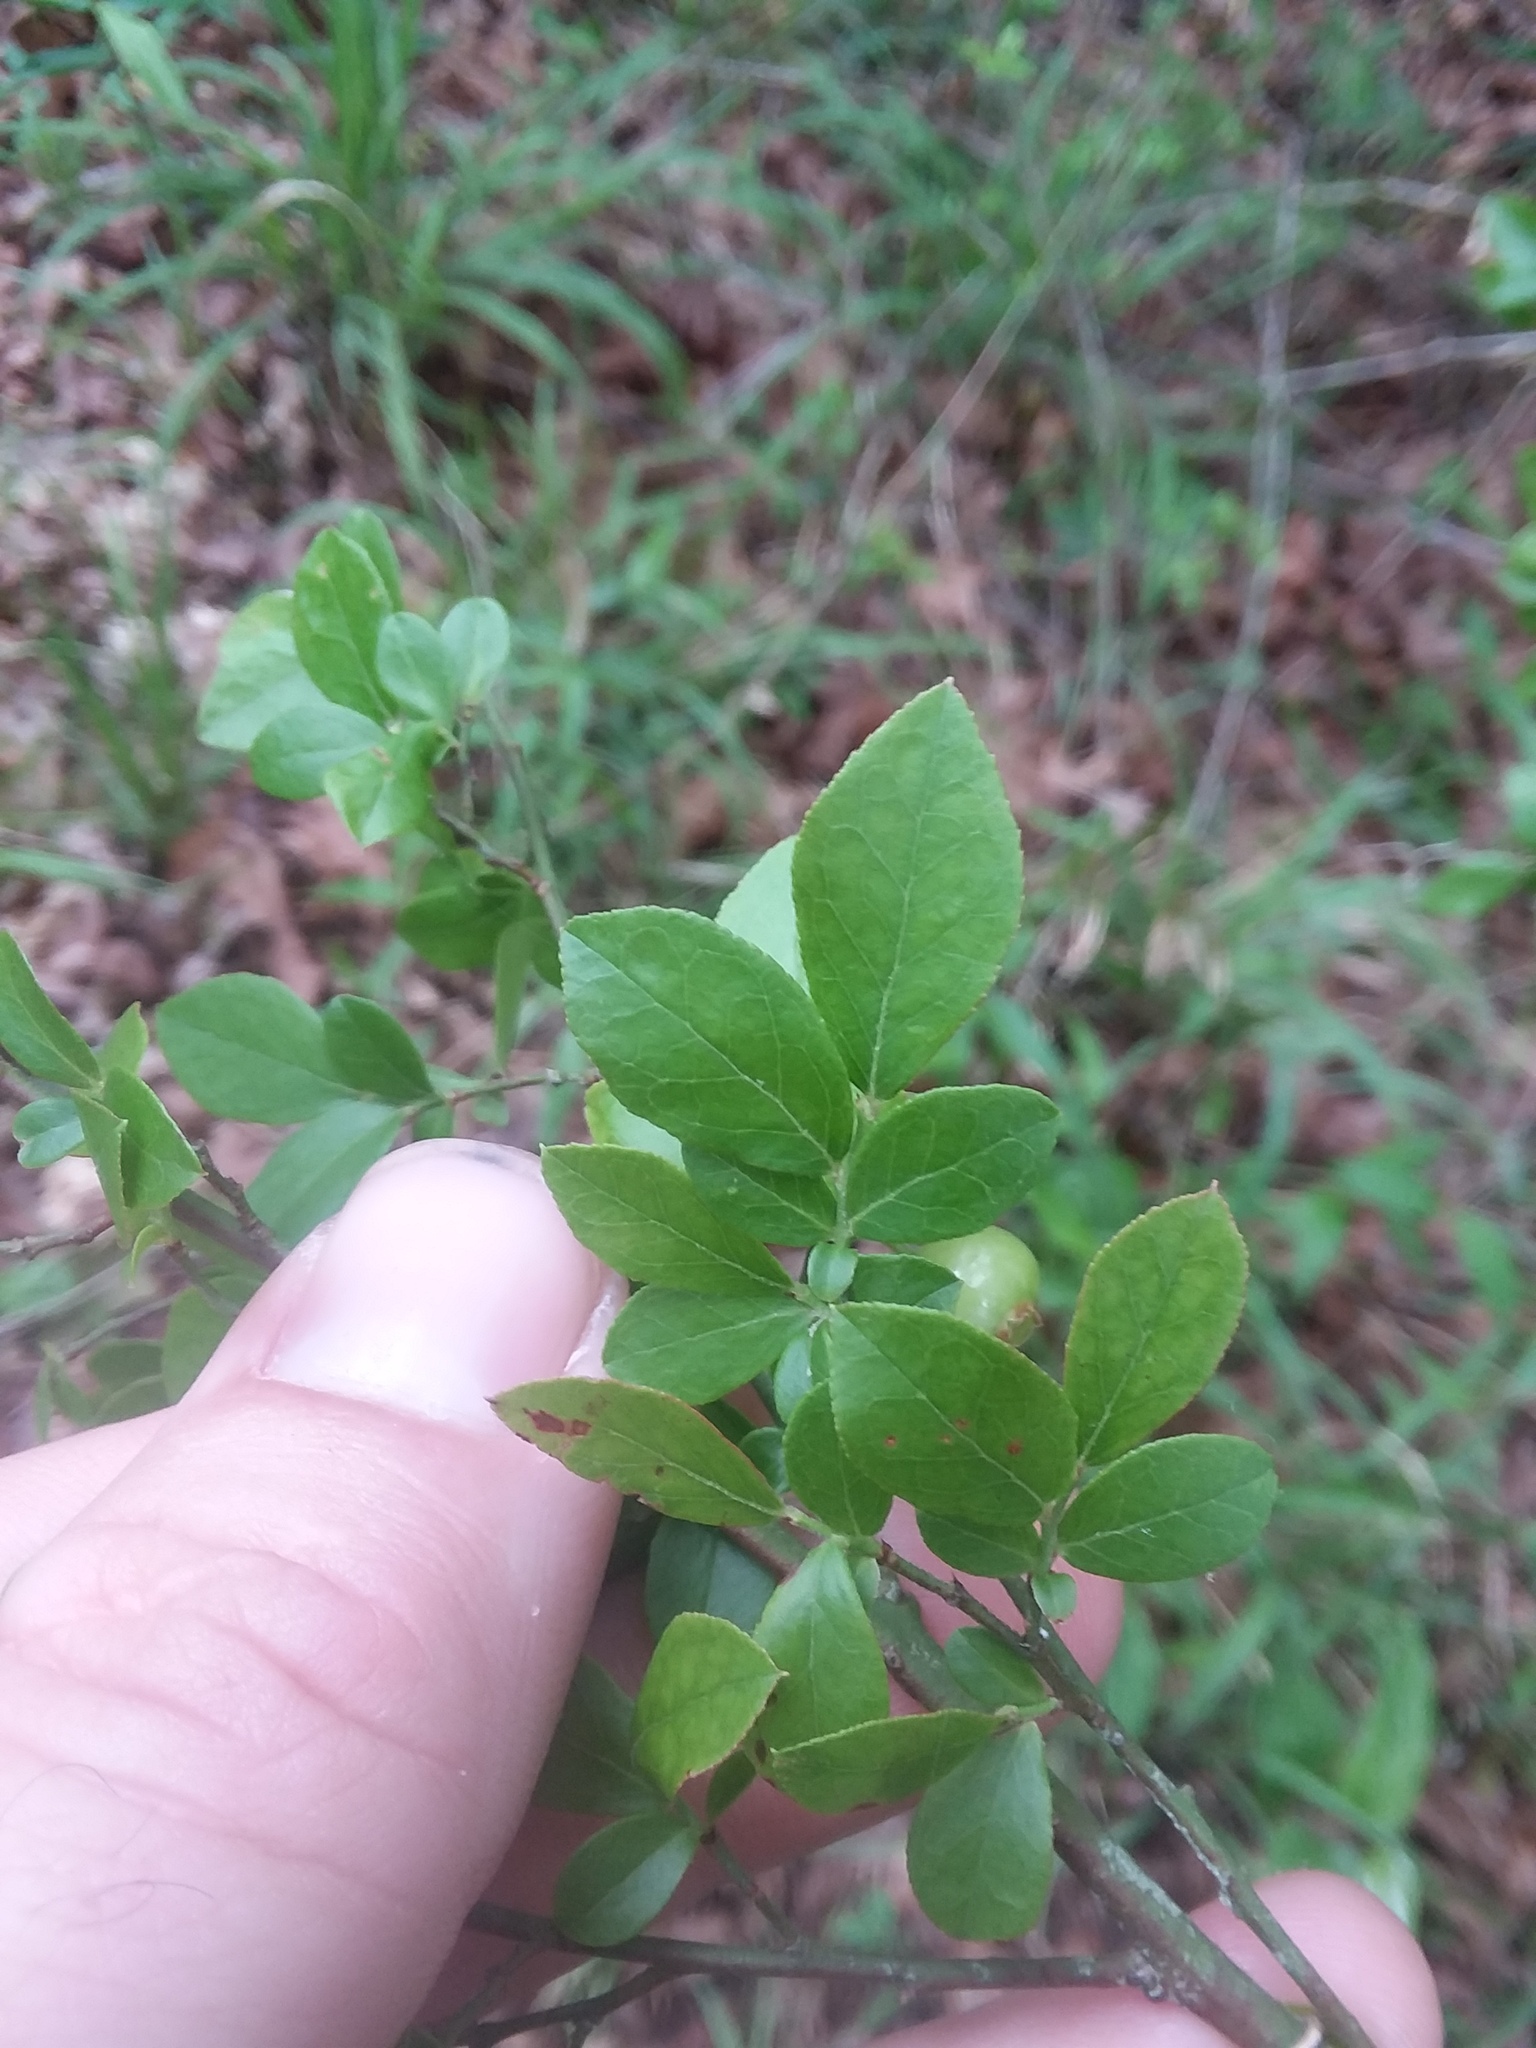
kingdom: Plantae
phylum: Tracheophyta
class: Magnoliopsida
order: Ericales
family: Ericaceae
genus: Vaccinium
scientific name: Vaccinium corymbosum
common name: Blueberry
